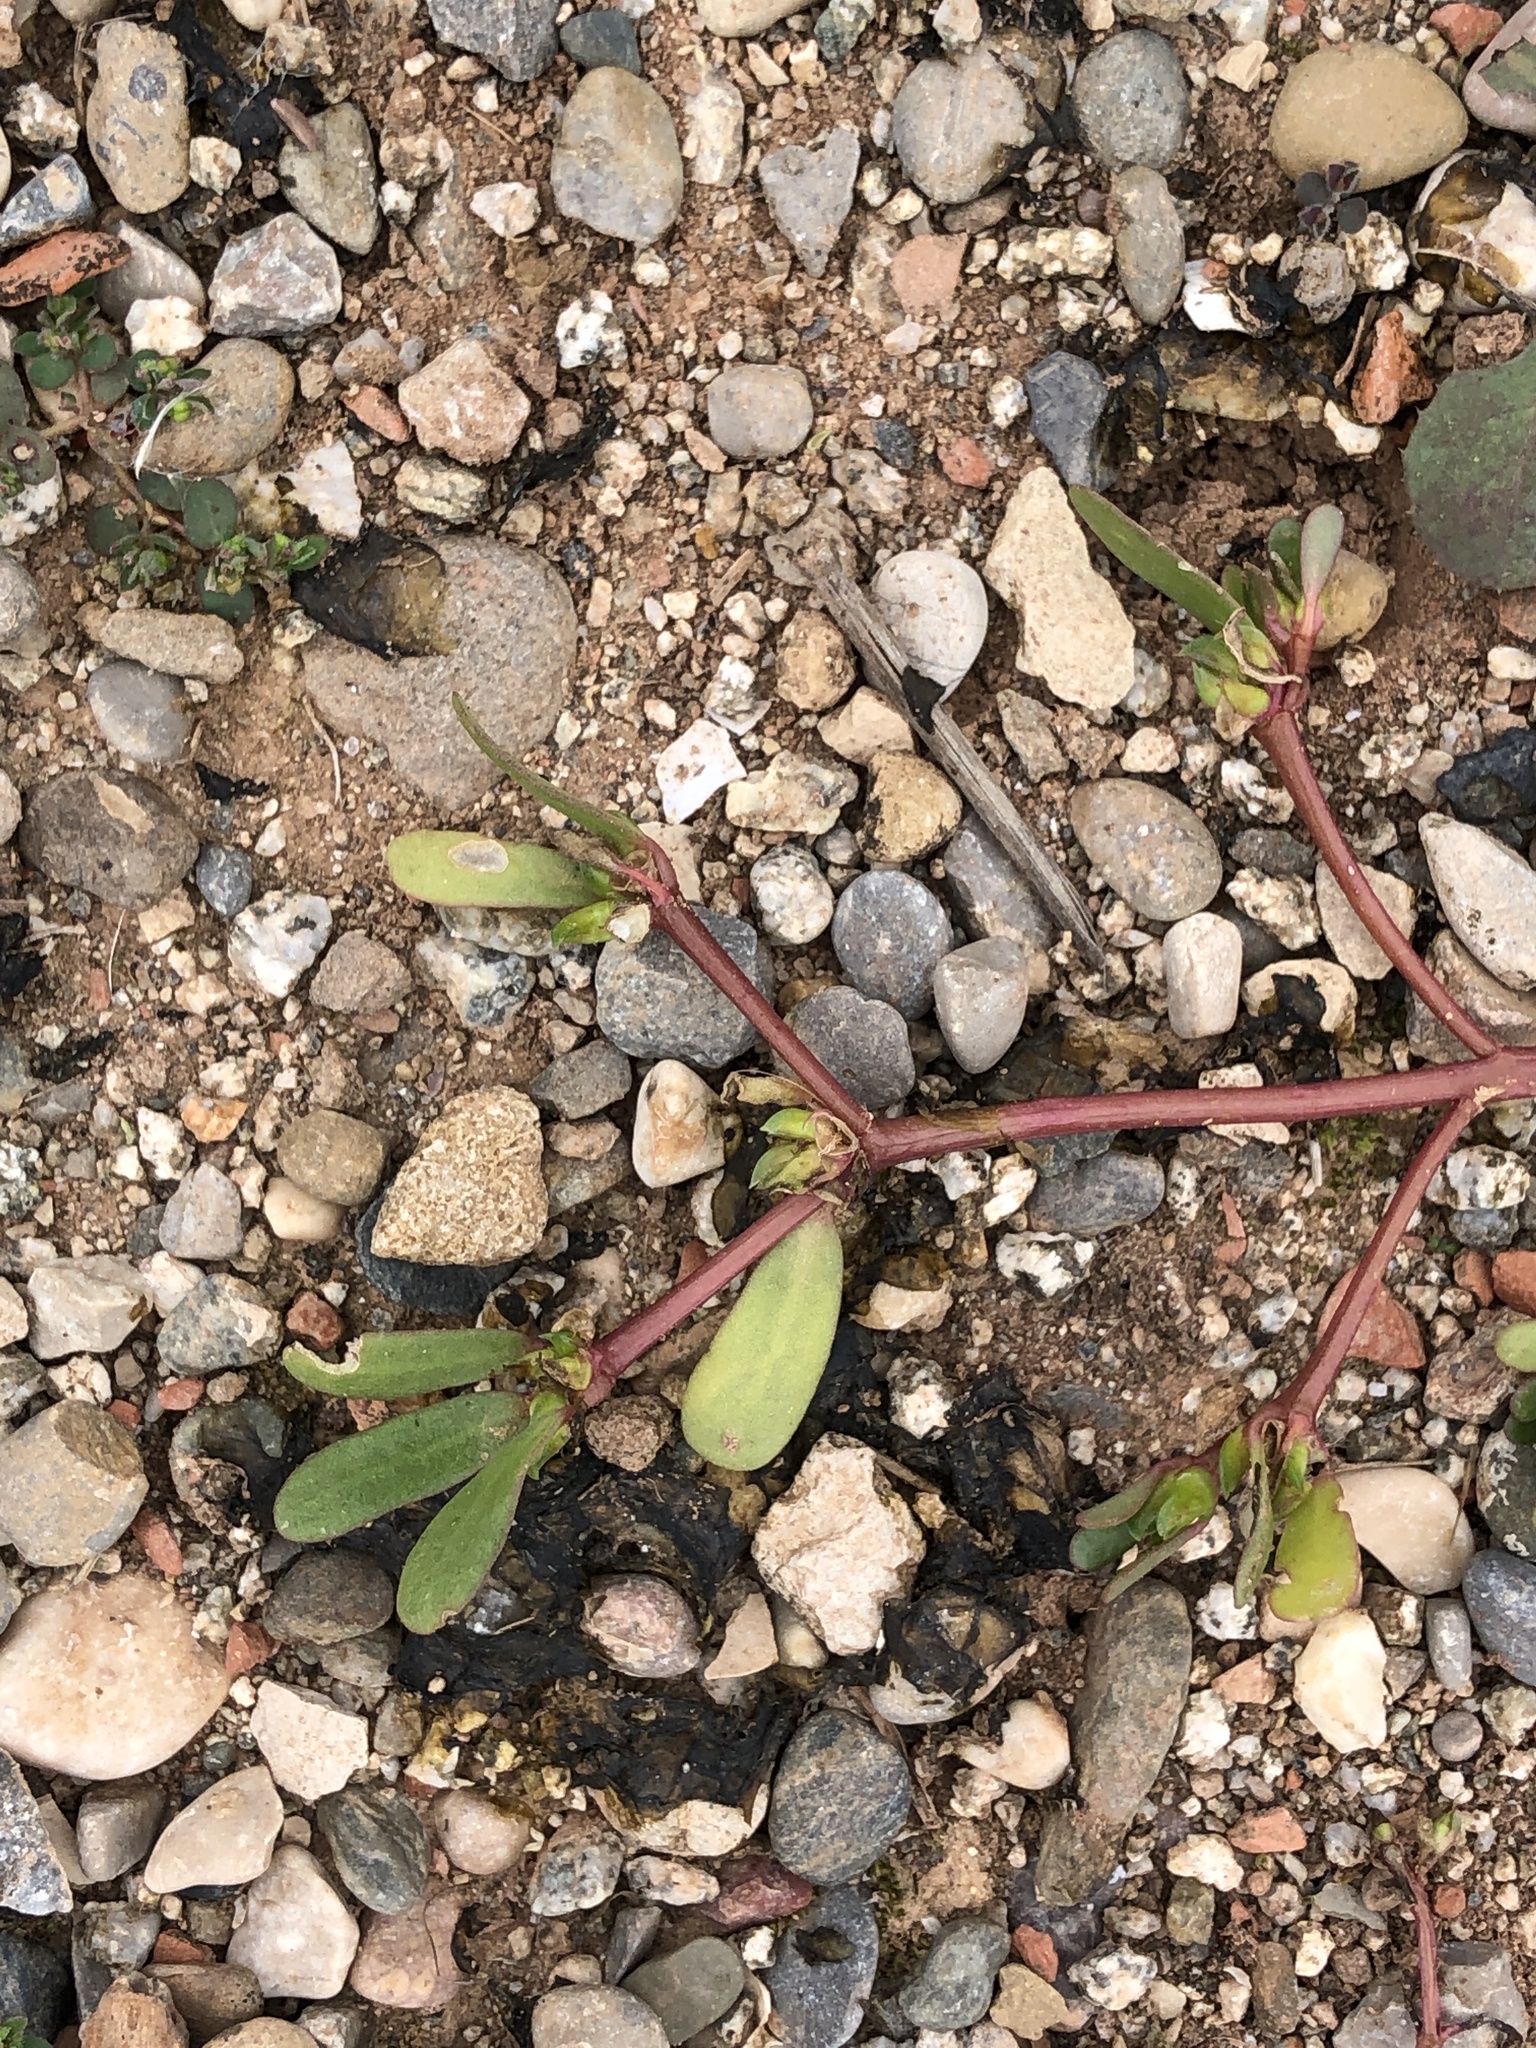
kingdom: Plantae
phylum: Tracheophyta
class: Magnoliopsida
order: Caryophyllales
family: Portulacaceae
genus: Portulaca
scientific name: Portulaca oleracea
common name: Common purslane
